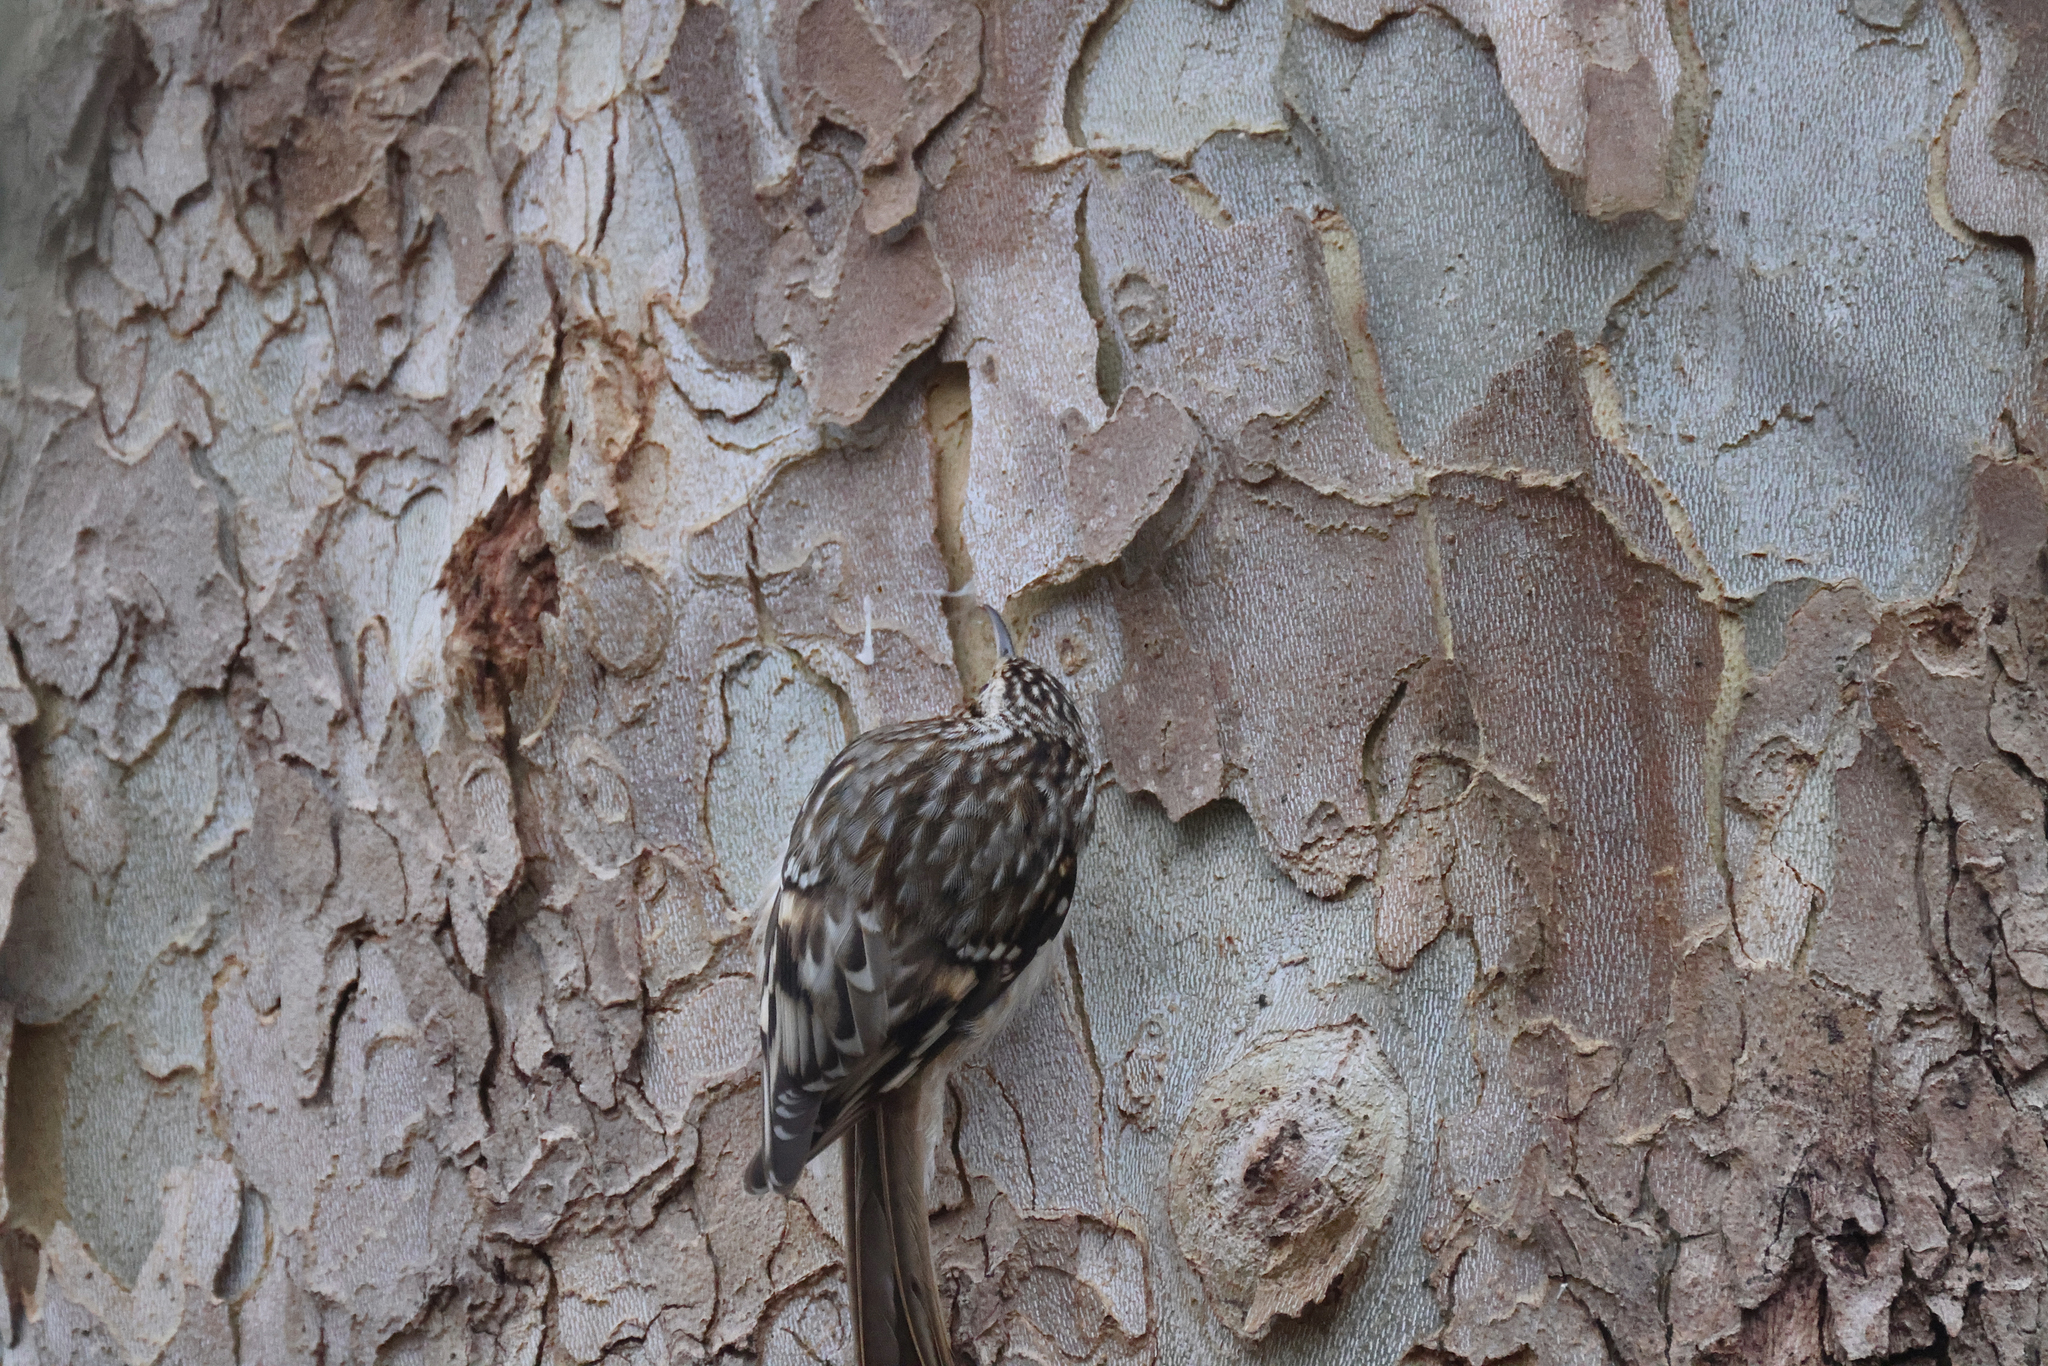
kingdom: Animalia
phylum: Chordata
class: Aves
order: Passeriformes
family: Certhiidae
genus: Certhia
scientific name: Certhia americana
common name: Brown creeper
